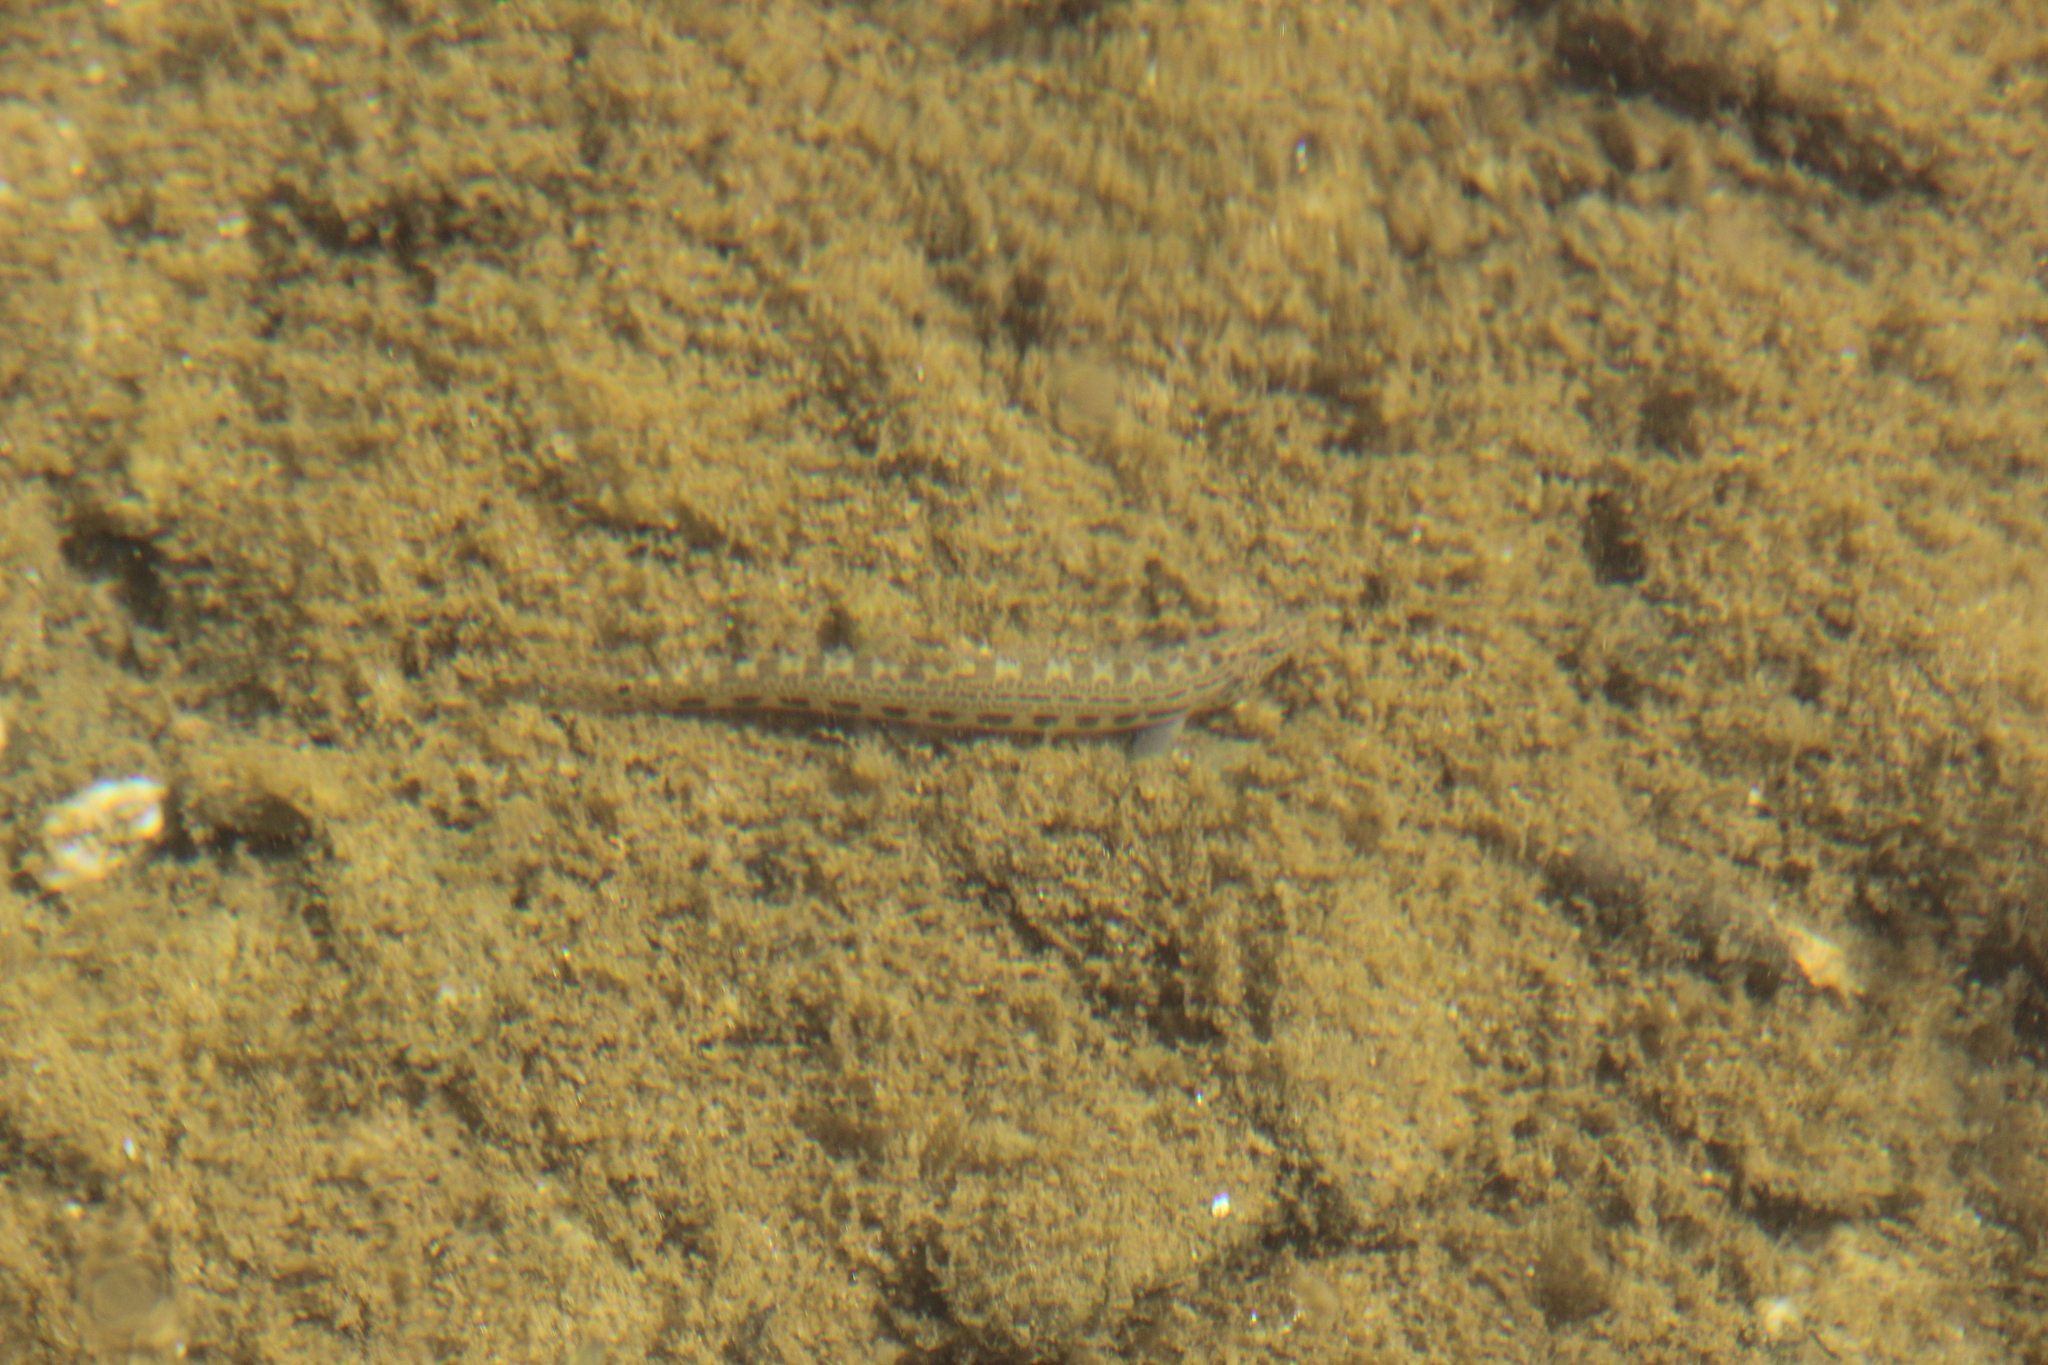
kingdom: Animalia
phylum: Chordata
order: Cypriniformes
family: Cobitidae
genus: Cobitis
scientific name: Cobitis bilineata
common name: Italian spined loach
